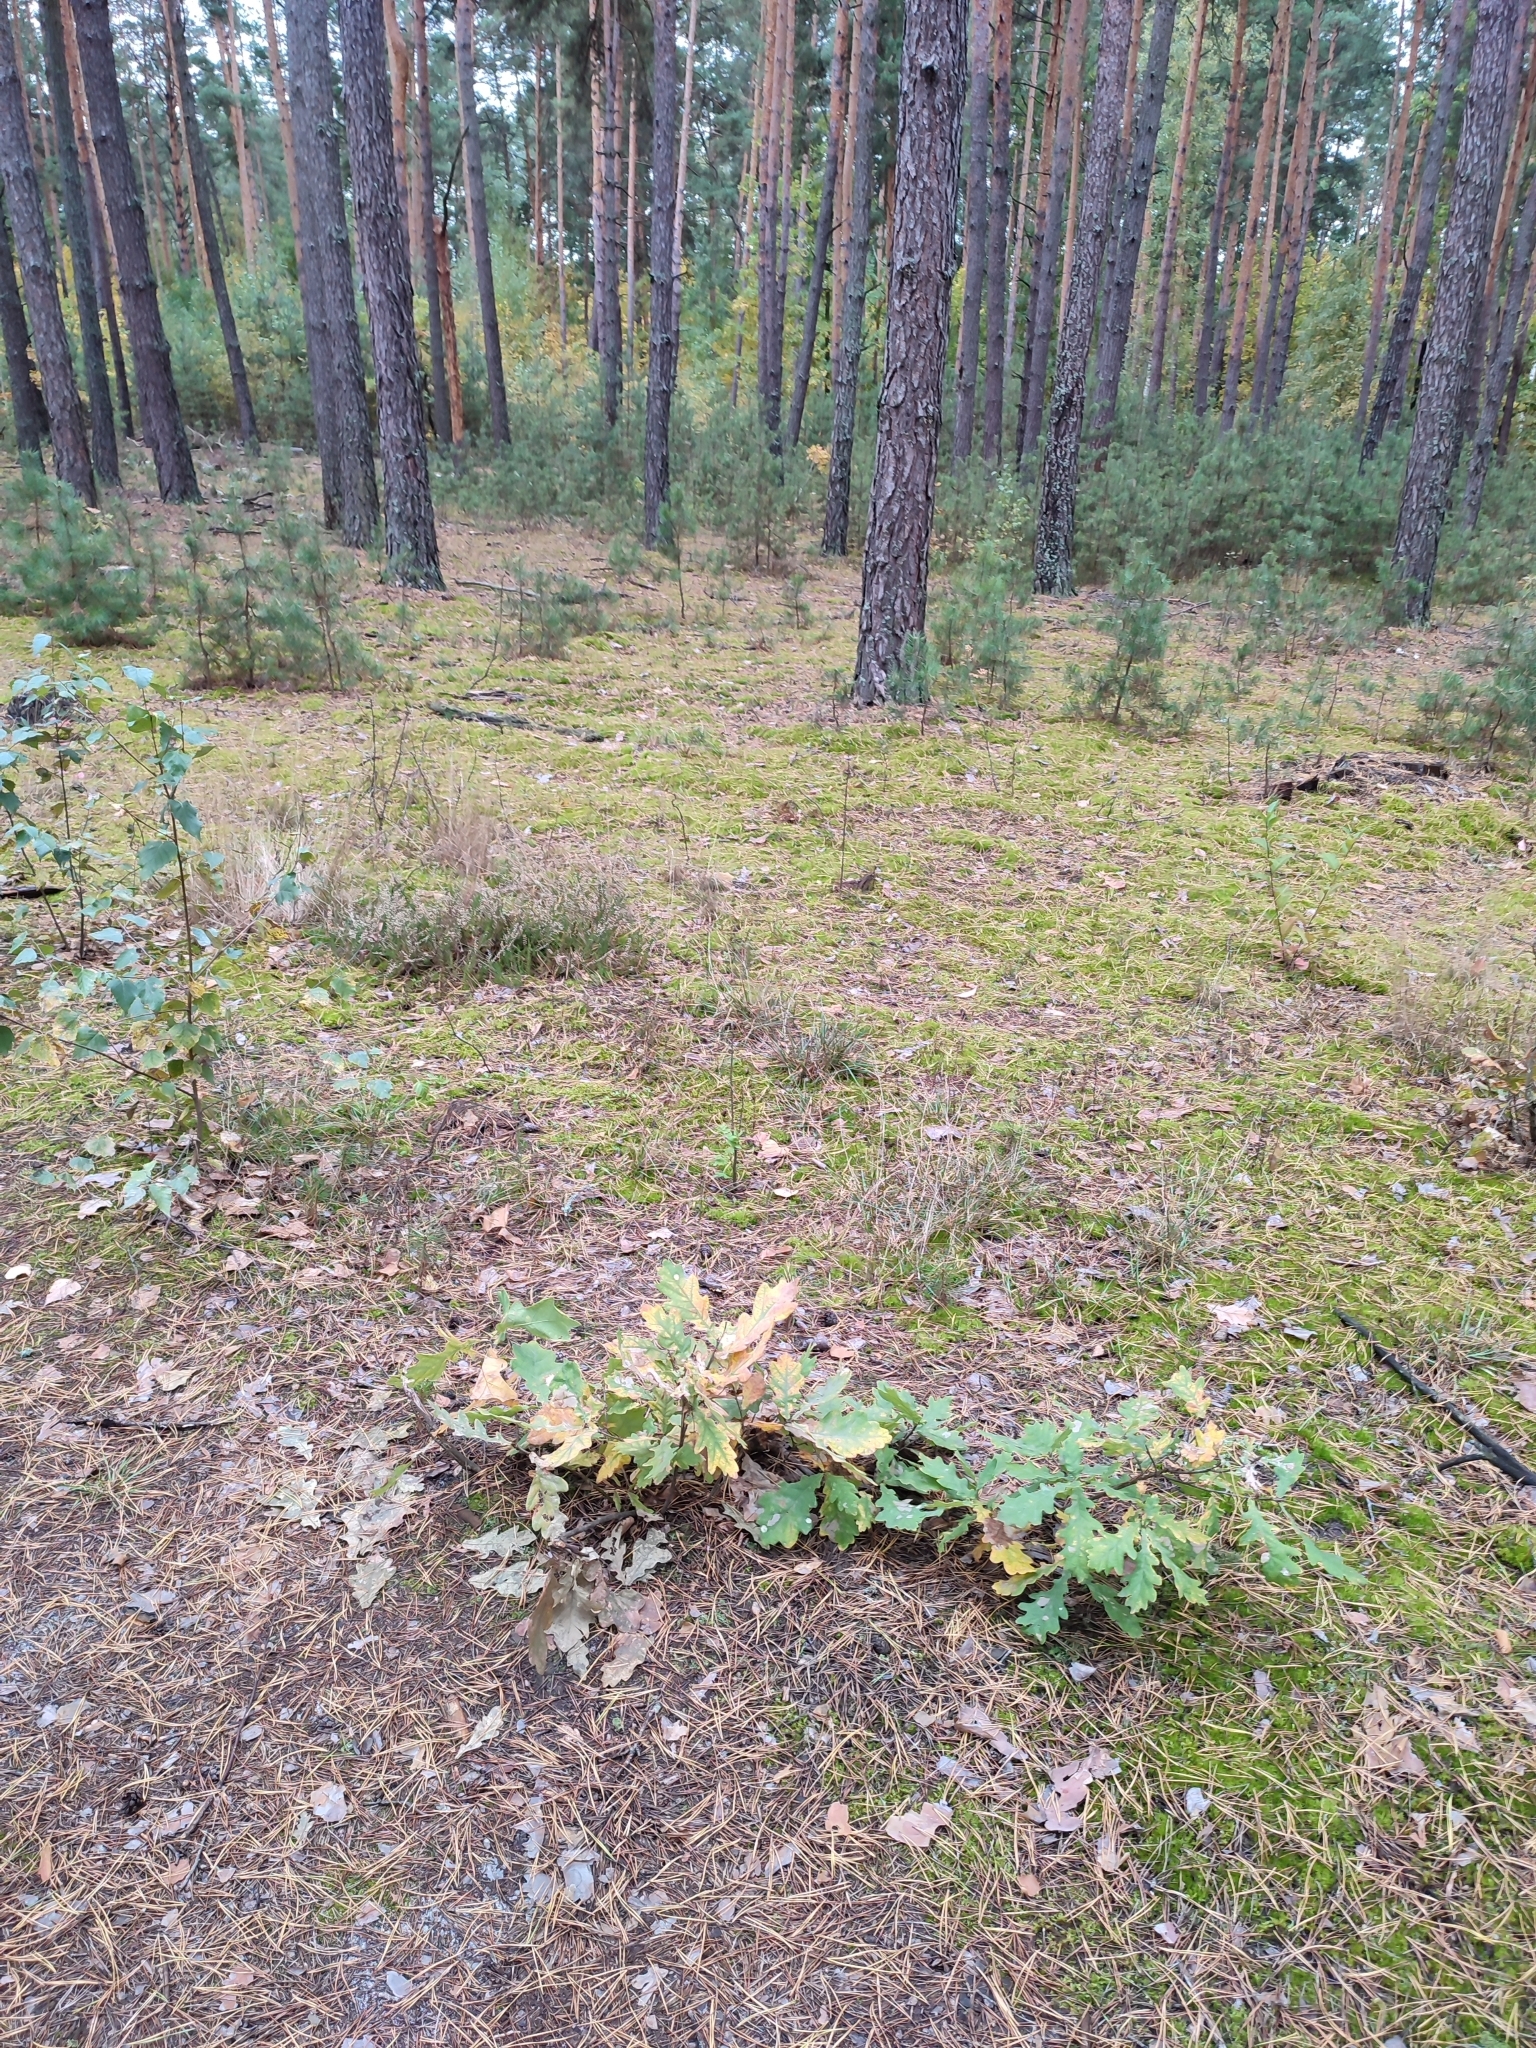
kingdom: Plantae
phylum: Tracheophyta
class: Magnoliopsida
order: Fagales
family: Fagaceae
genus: Quercus
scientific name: Quercus robur
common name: Pedunculate oak
